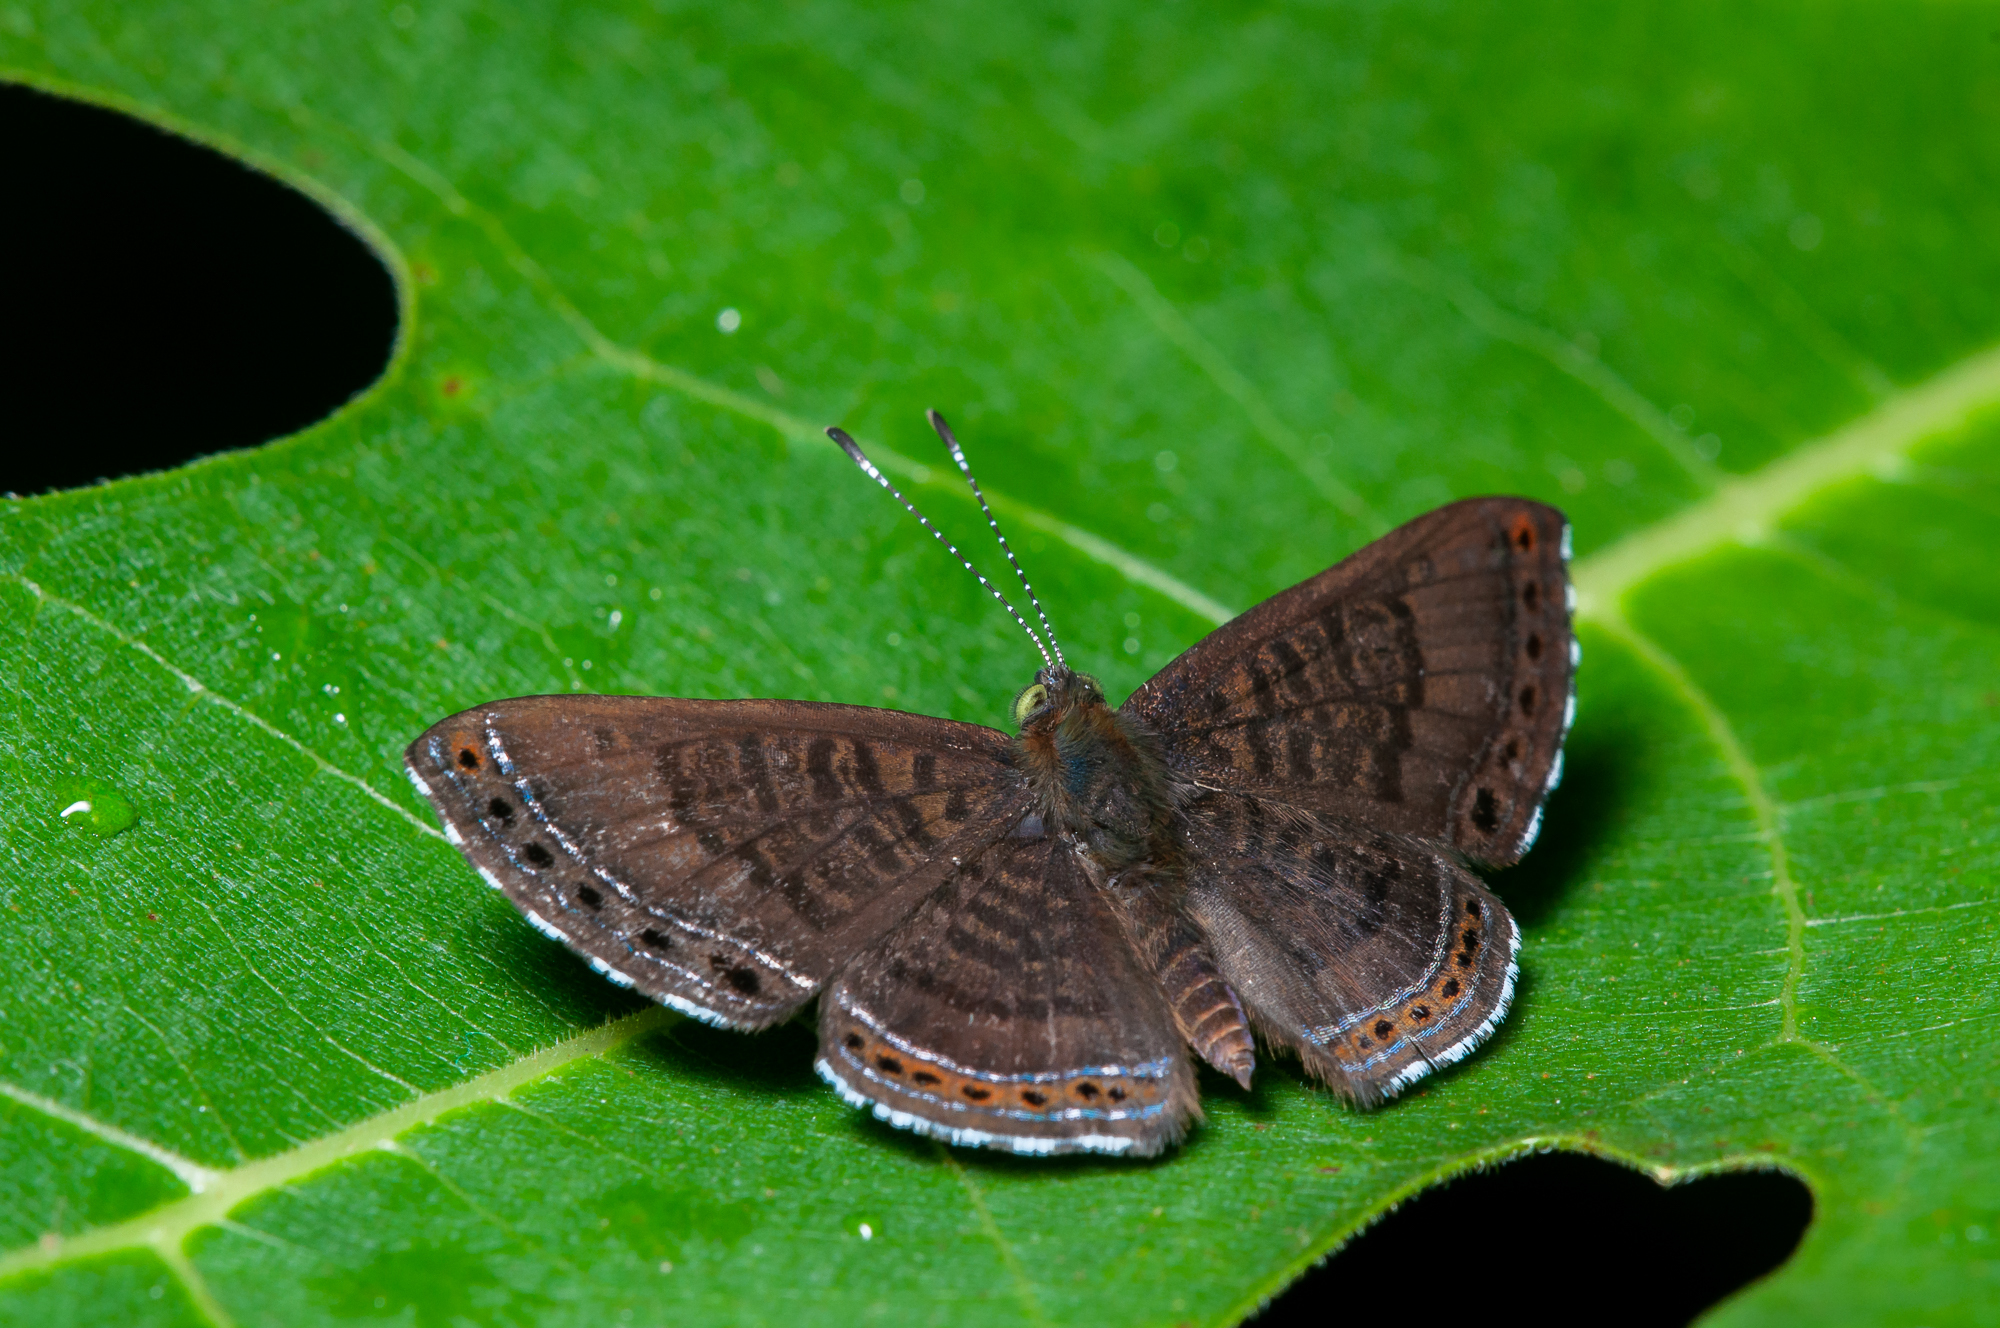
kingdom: Animalia
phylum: Arthropoda
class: Insecta
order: Lepidoptera
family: Riodinidae
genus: Detritivora
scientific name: Detritivora
